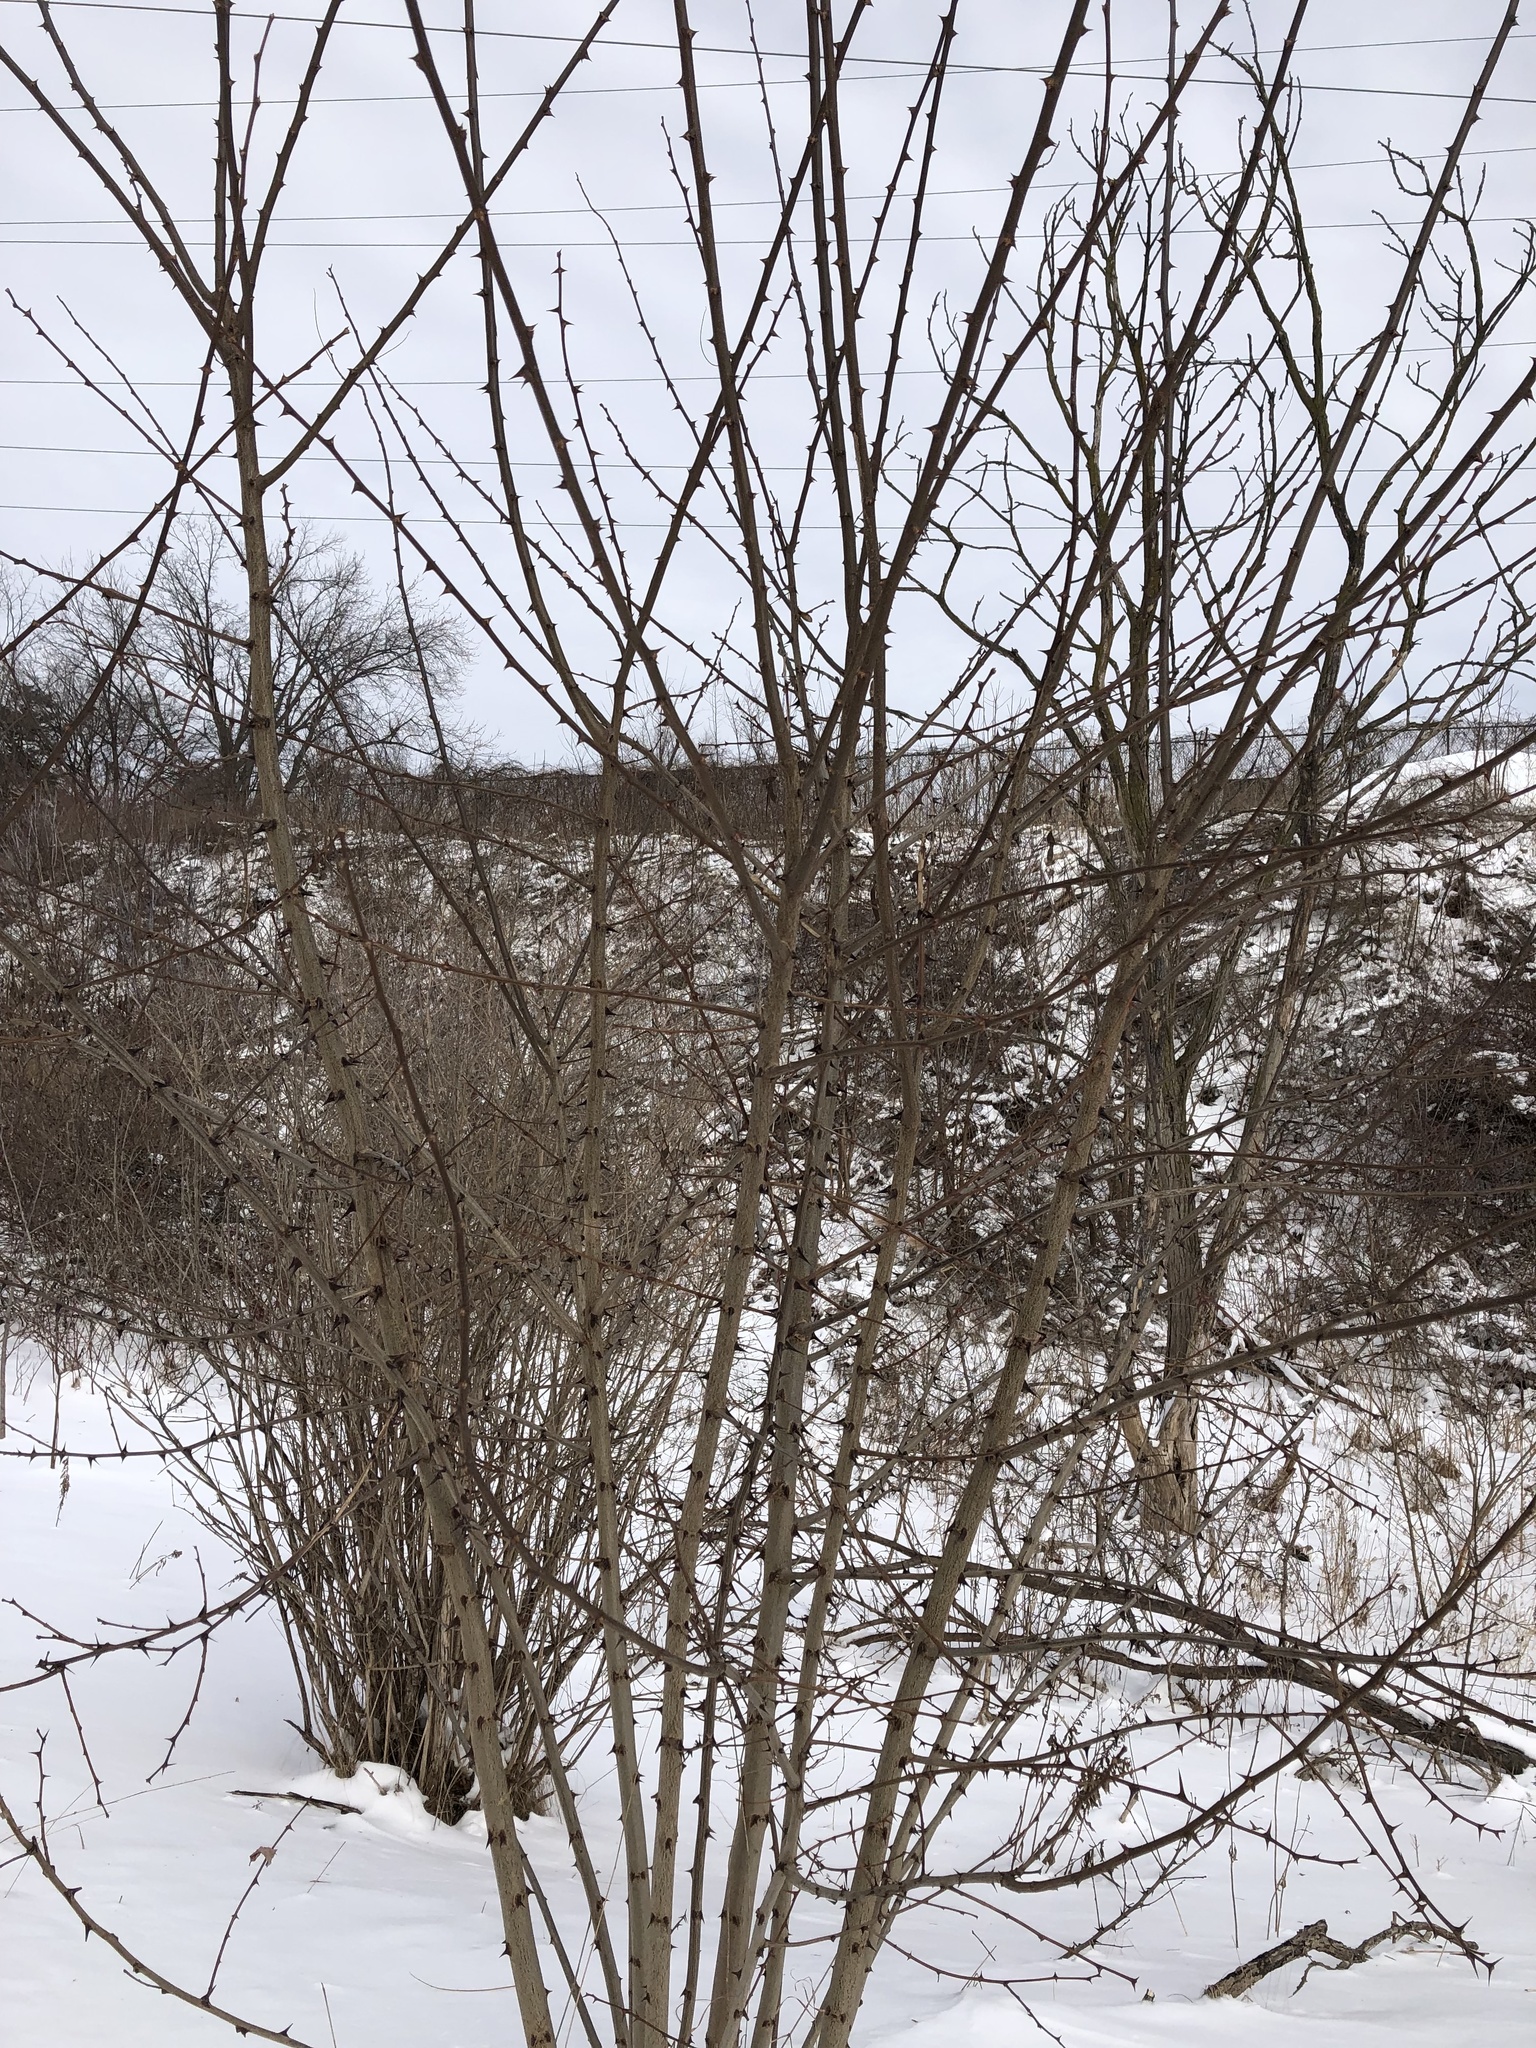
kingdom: Plantae
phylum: Tracheophyta
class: Magnoliopsida
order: Fabales
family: Fabaceae
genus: Robinia
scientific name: Robinia pseudoacacia
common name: Black locust
